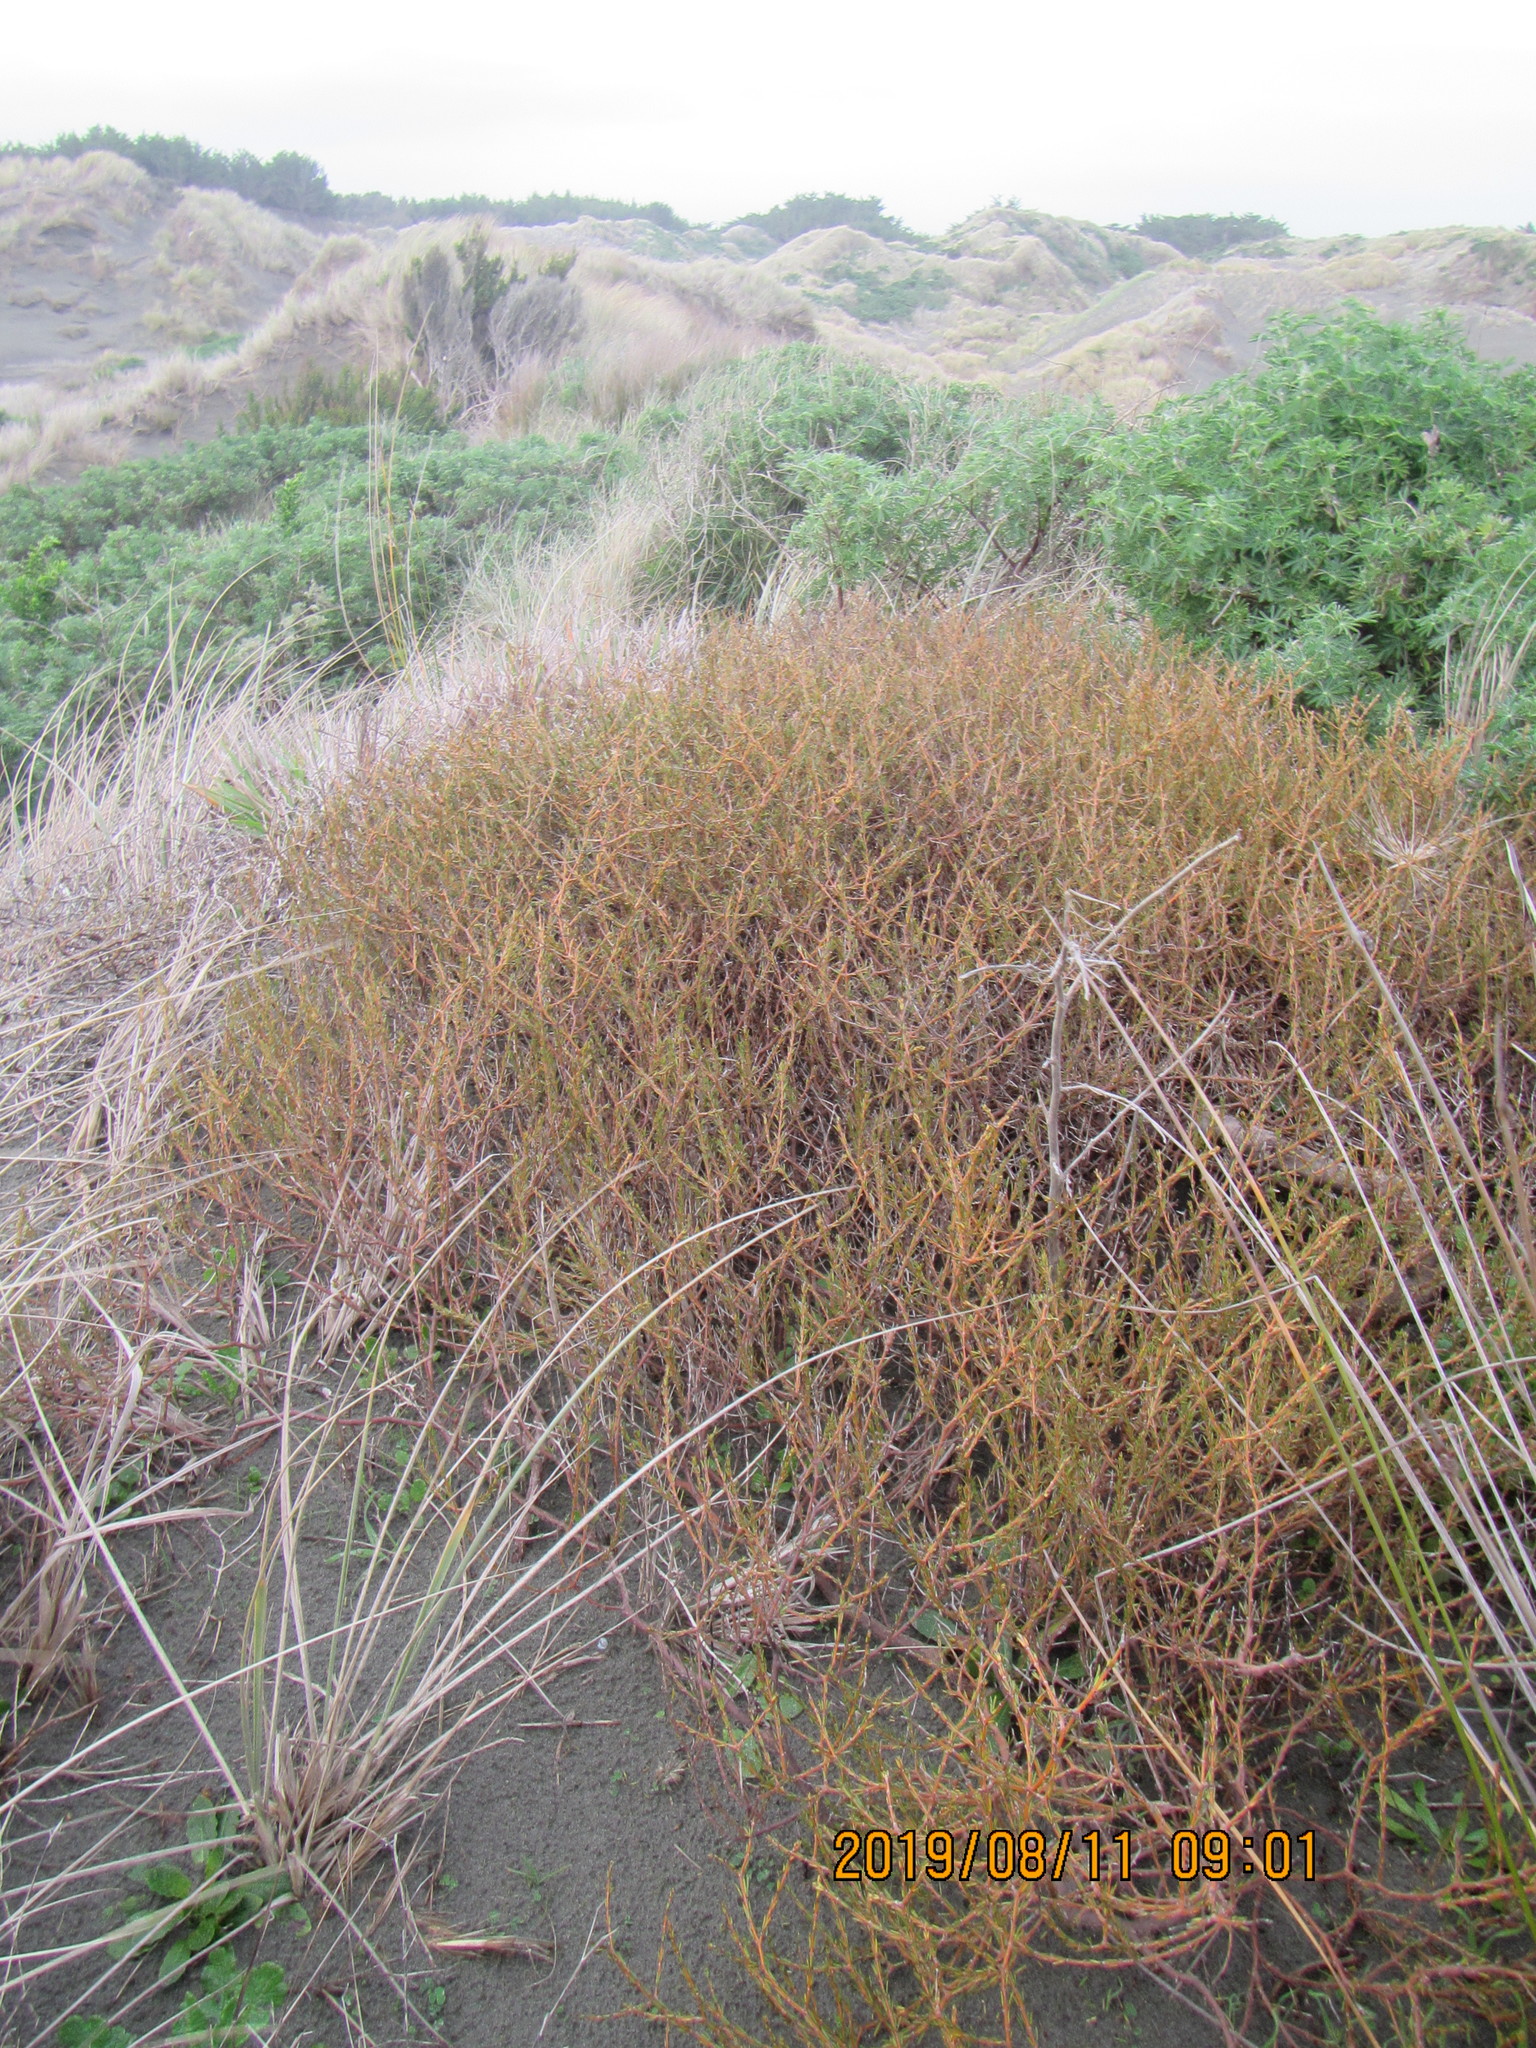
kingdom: Animalia
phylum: Mollusca
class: Gastropoda
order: Stylommatophora
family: Geomitridae
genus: Xeroplexa
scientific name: Xeroplexa intersecta
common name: Wrinkled snail
